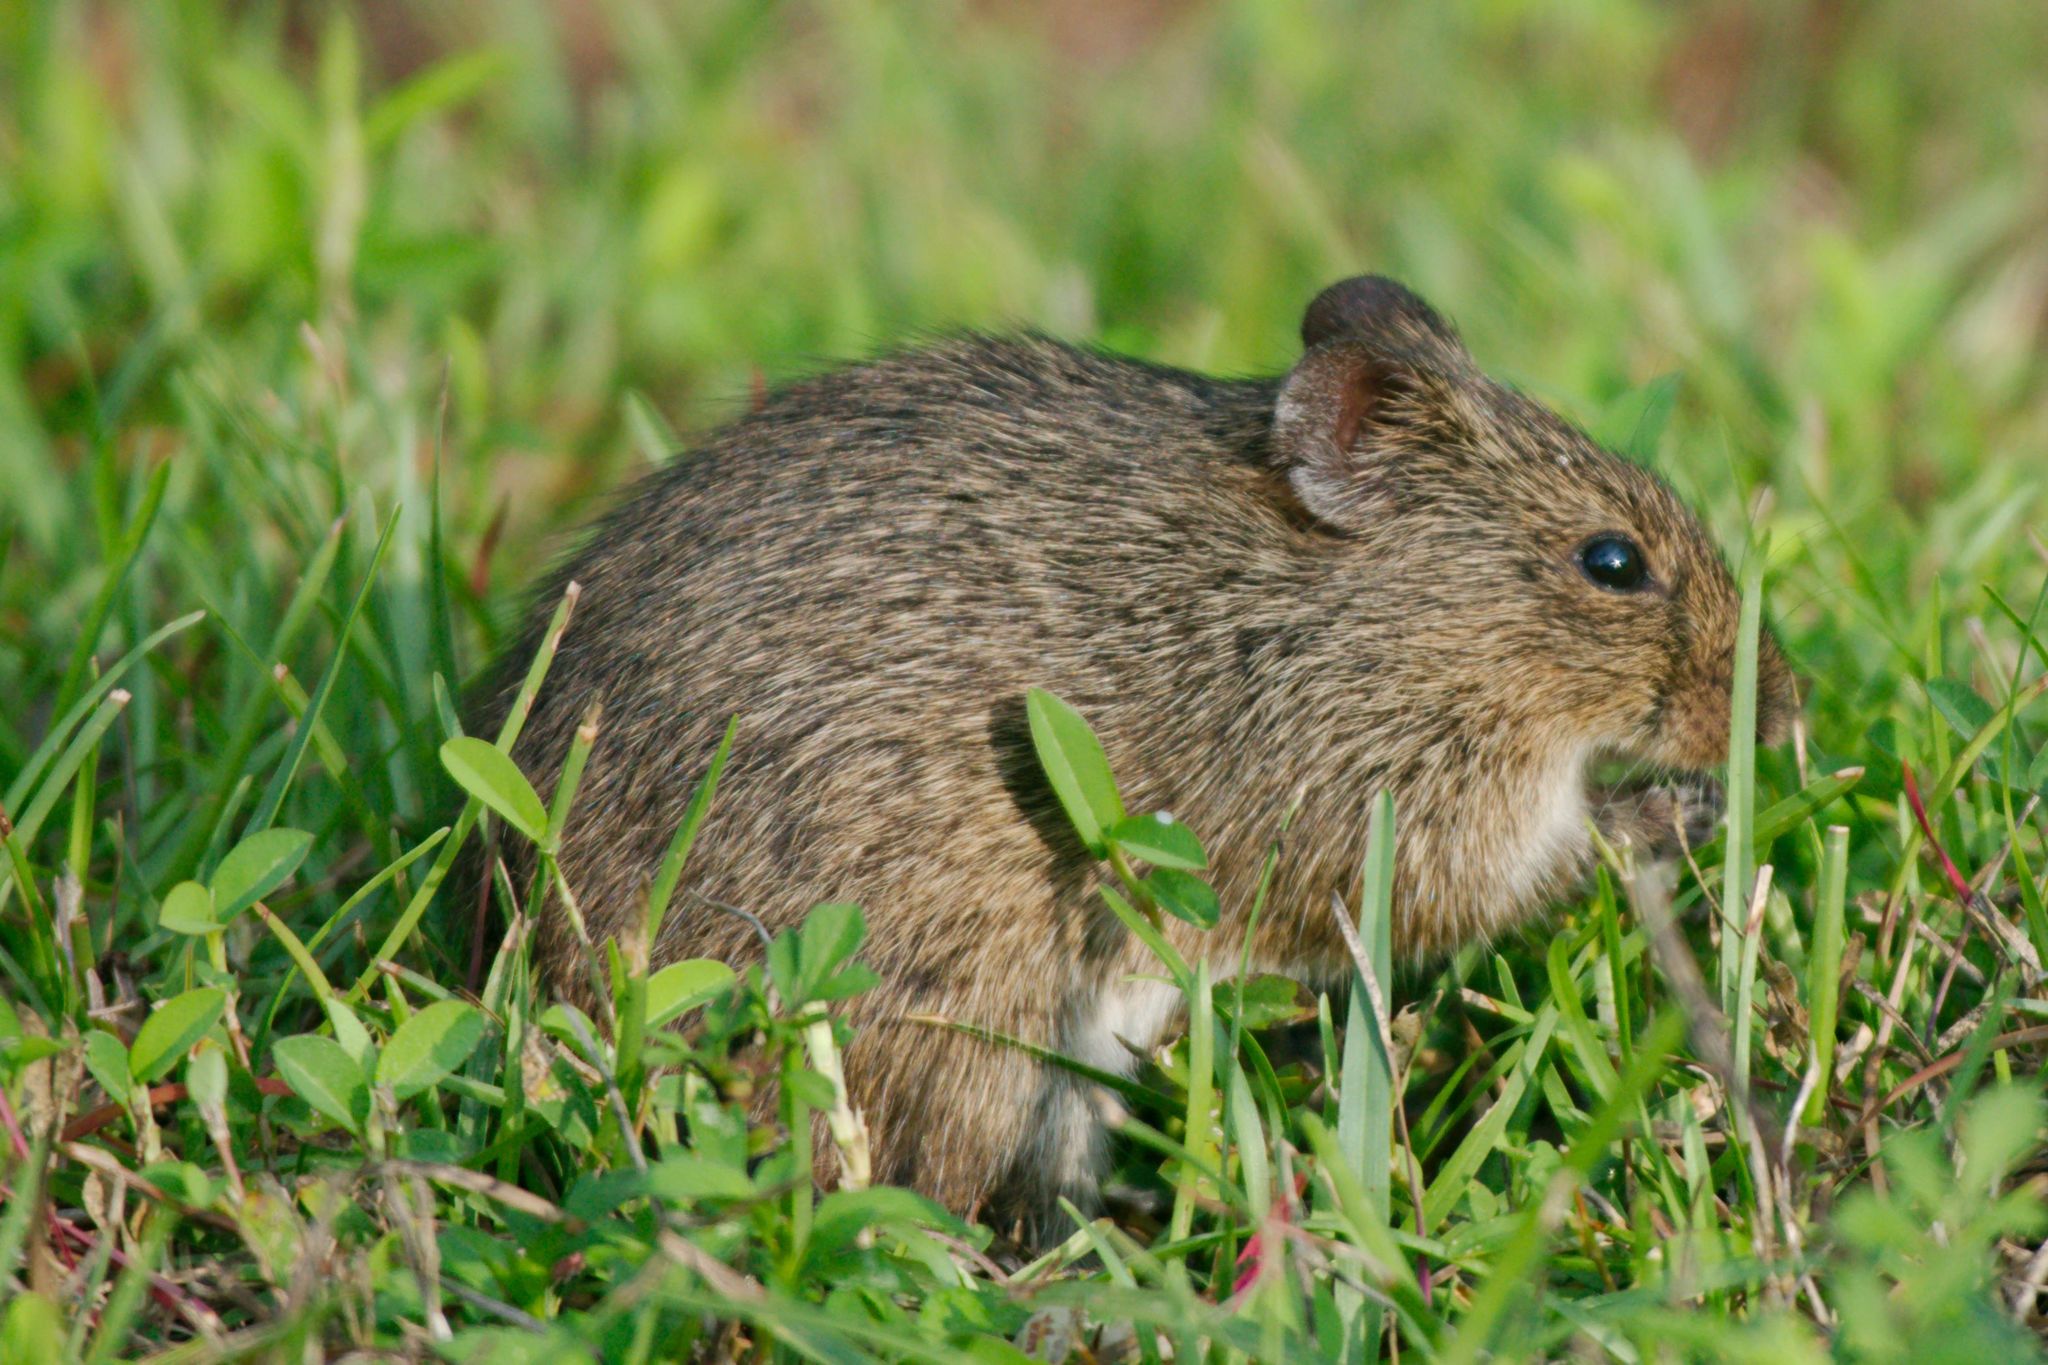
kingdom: Animalia
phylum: Chordata
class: Mammalia
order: Rodentia
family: Cricetidae
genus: Sigmodon
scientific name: Sigmodon hispidus
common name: Hispid cotton rat
